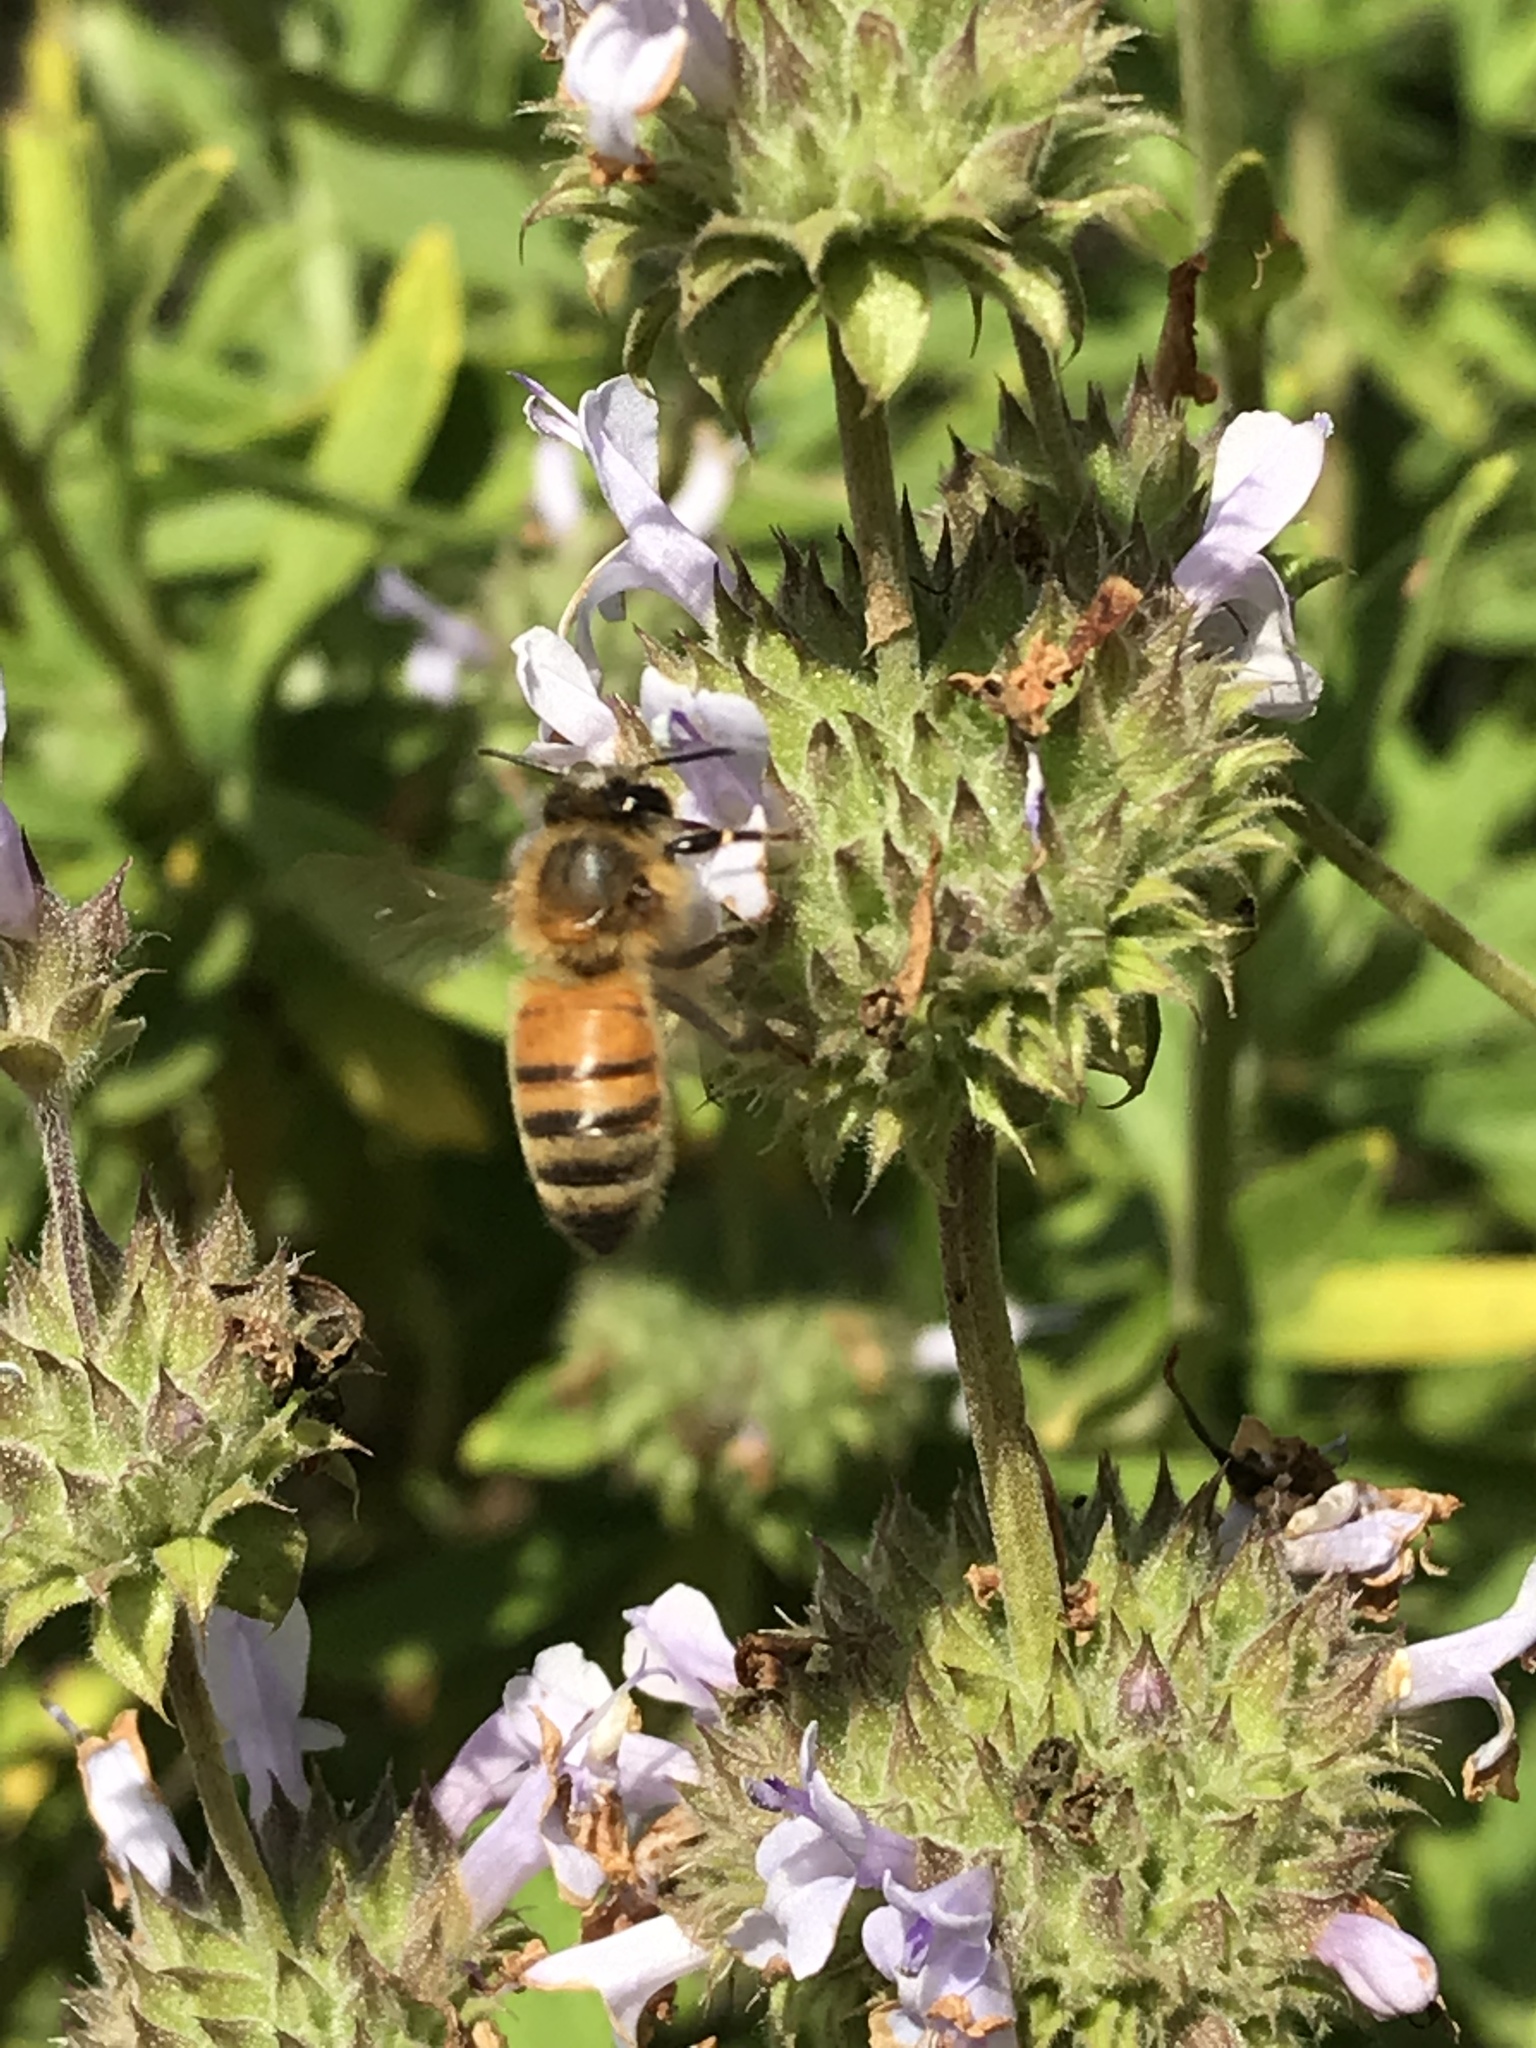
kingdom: Animalia
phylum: Arthropoda
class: Insecta
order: Hymenoptera
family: Apidae
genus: Apis
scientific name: Apis mellifera
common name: Honey bee
